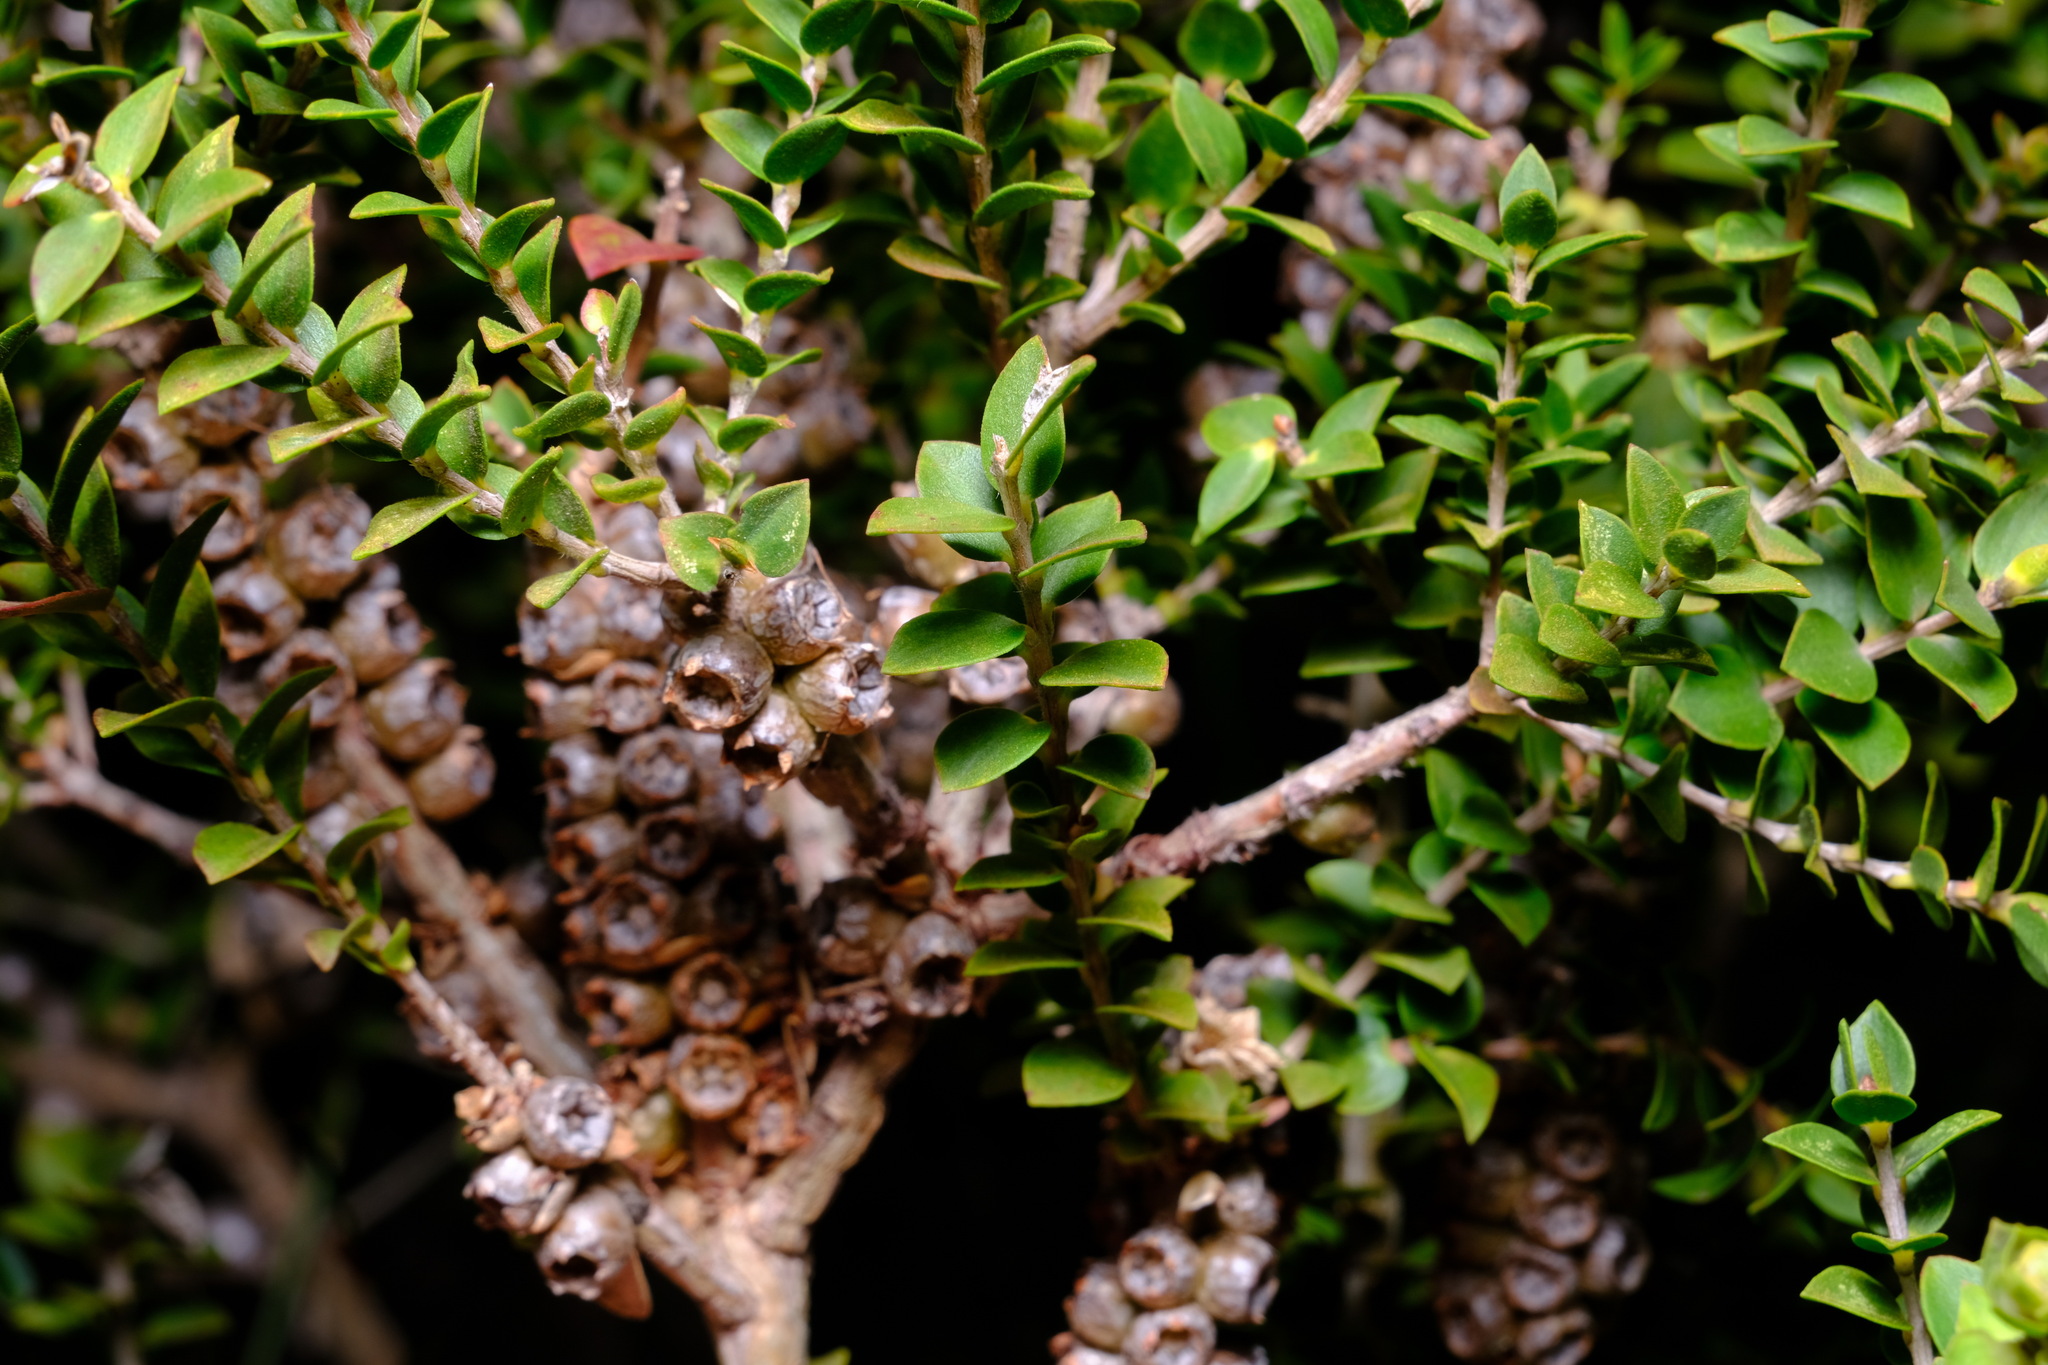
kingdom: Plantae
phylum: Tracheophyta
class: Magnoliopsida
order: Myrtales
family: Myrtaceae
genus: Melaleuca
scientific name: Melaleuca squarrosa
